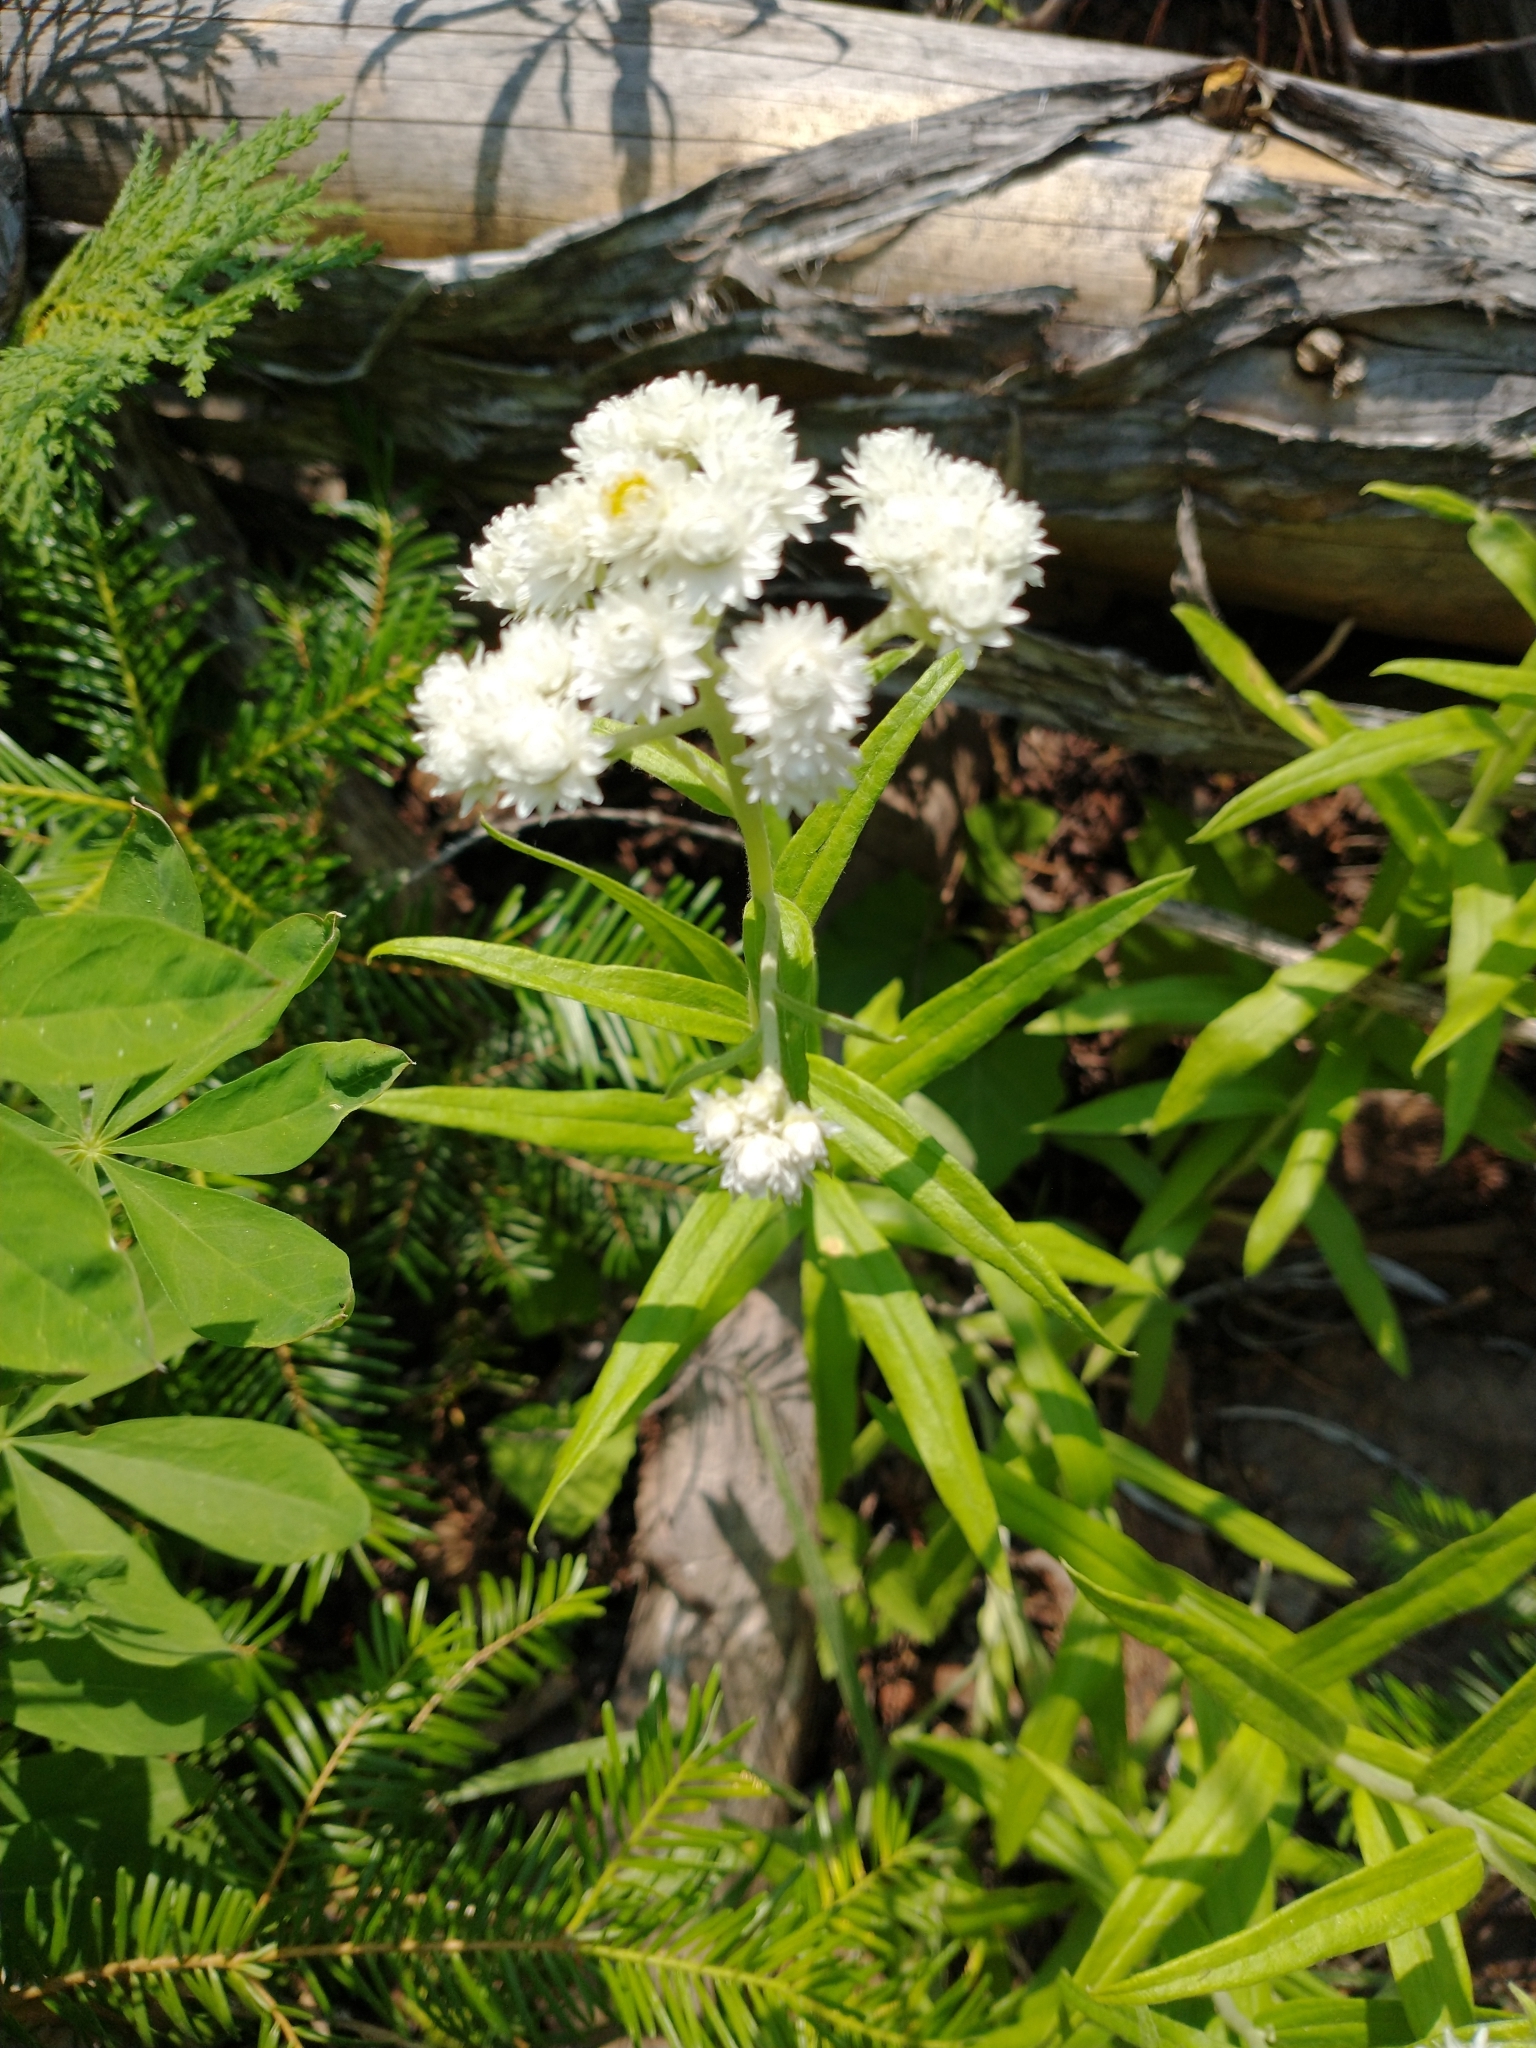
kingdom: Plantae
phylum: Tracheophyta
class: Magnoliopsida
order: Asterales
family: Asteraceae
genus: Anaphalis
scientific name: Anaphalis margaritacea
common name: Pearly everlasting
